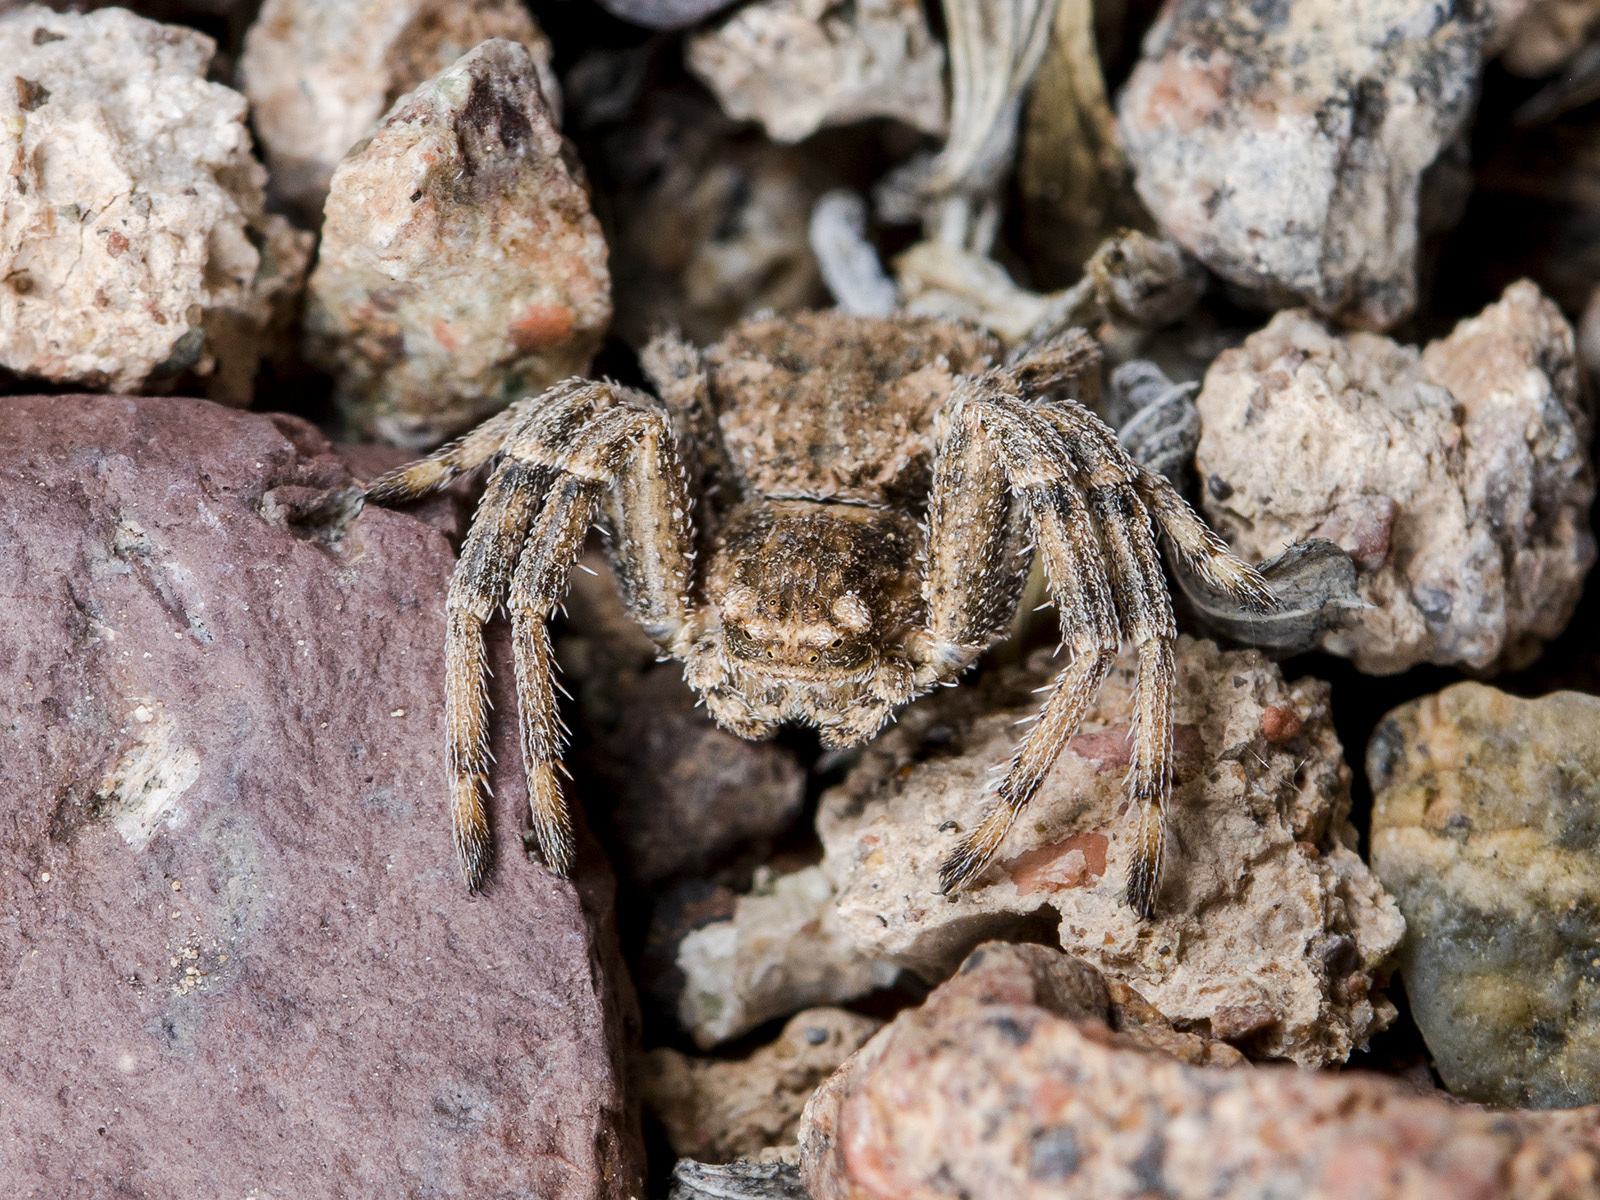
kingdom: Animalia
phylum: Arthropoda
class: Arachnida
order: Araneae
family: Thomisidae
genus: Ozyptila
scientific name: Ozyptila lugubris
